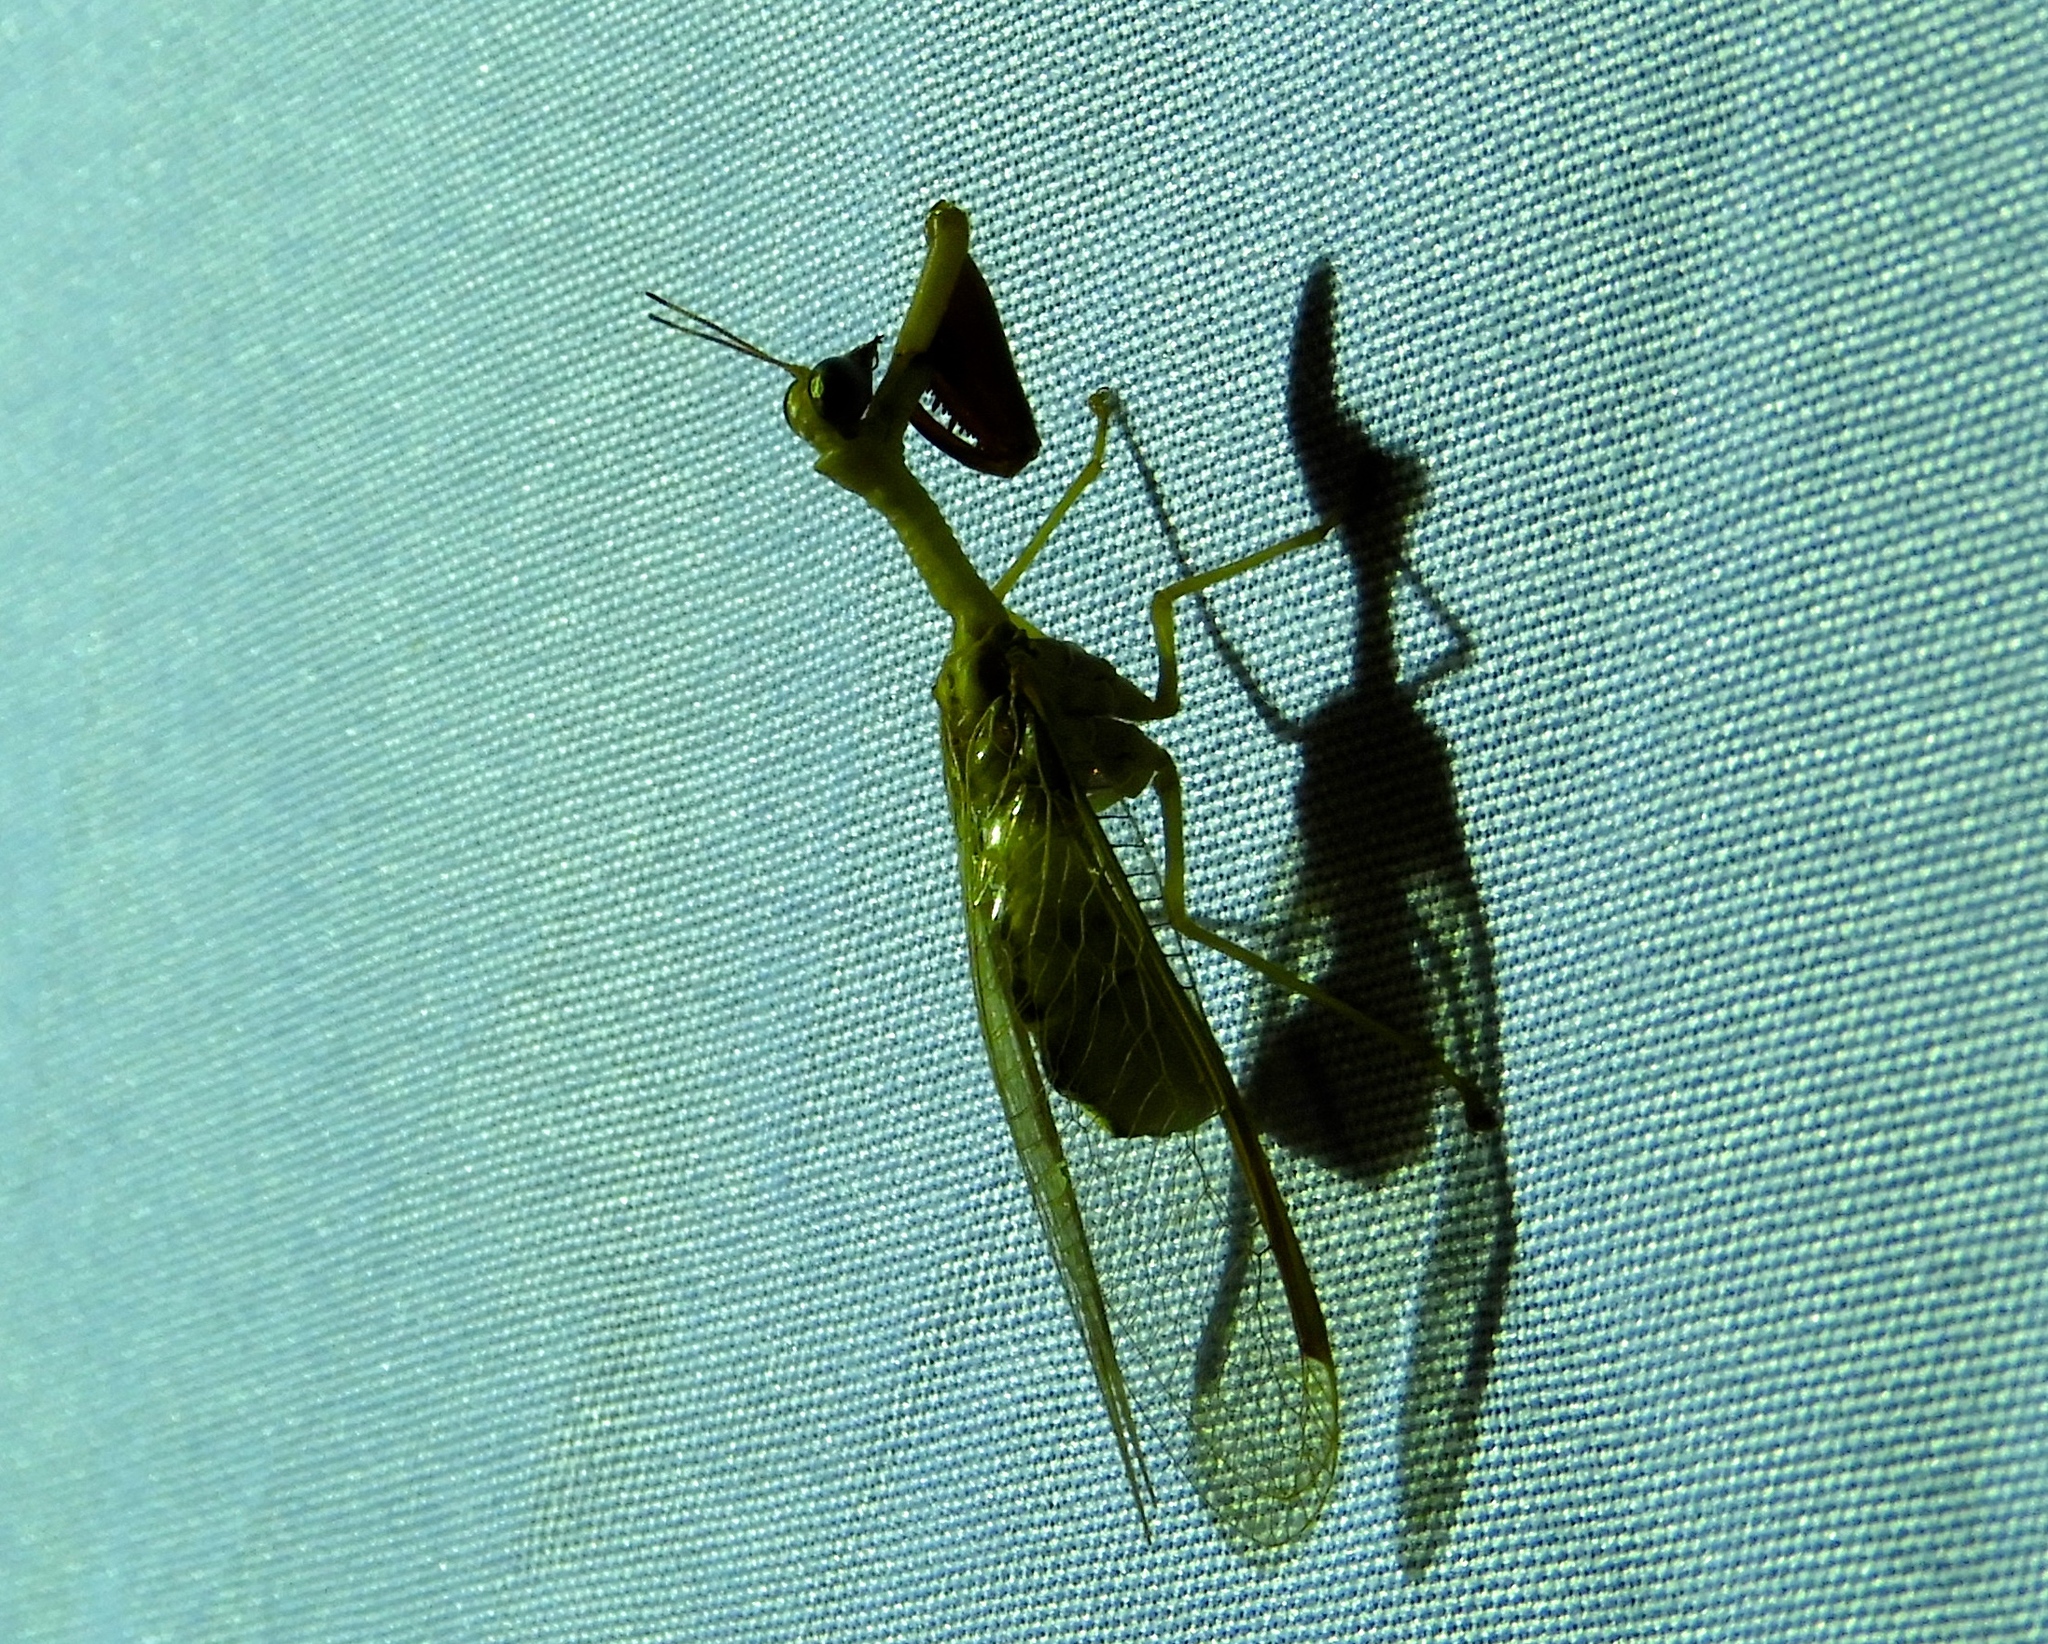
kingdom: Animalia
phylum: Arthropoda
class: Insecta
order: Neuroptera
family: Mantispidae
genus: Zeugomantispa
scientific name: Zeugomantispa minuta
